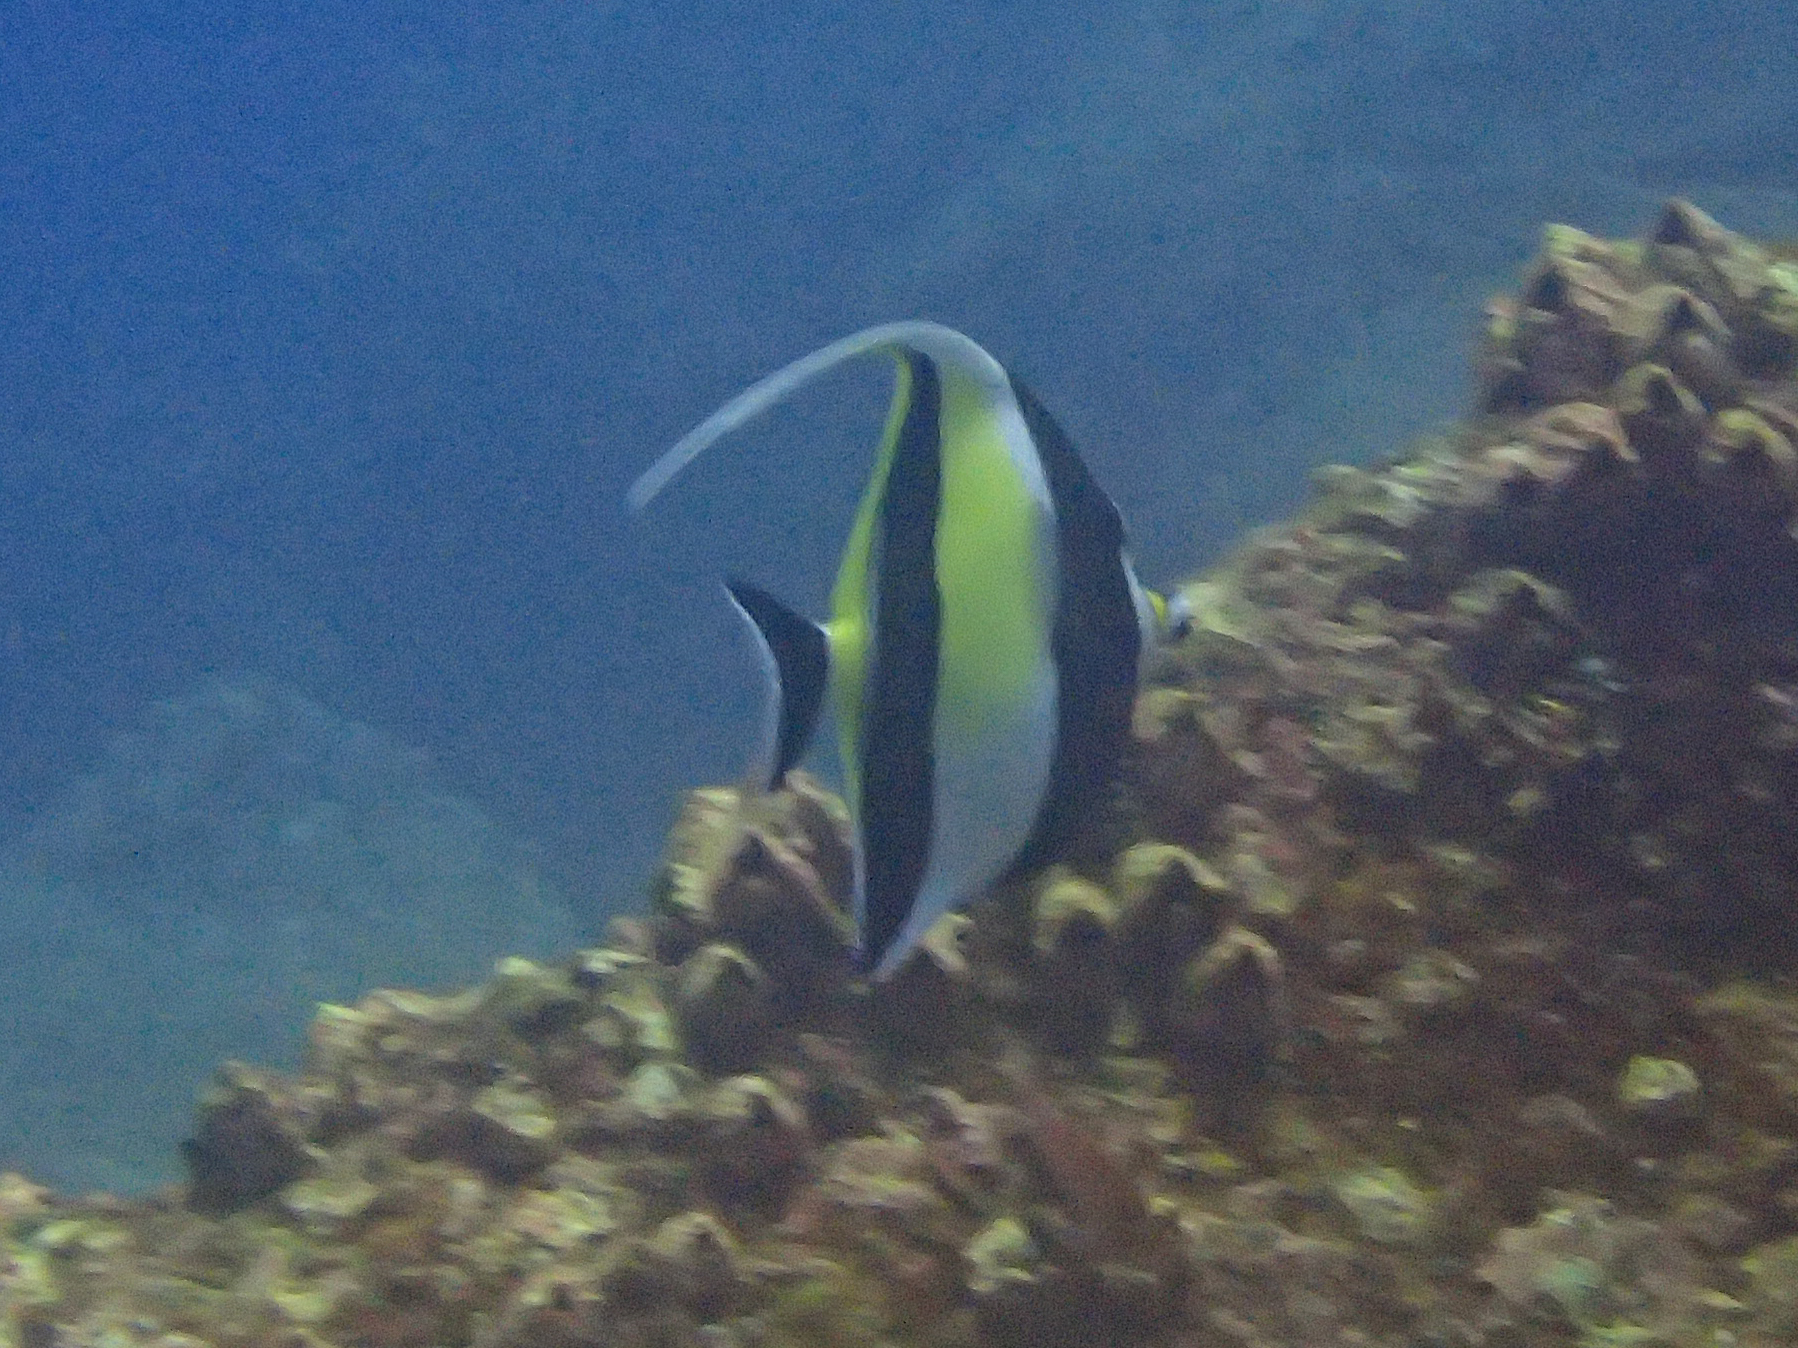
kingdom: Animalia
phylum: Chordata
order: Perciformes
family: Zanclidae
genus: Zanclus
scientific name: Zanclus cornutus
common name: Moorish idol
